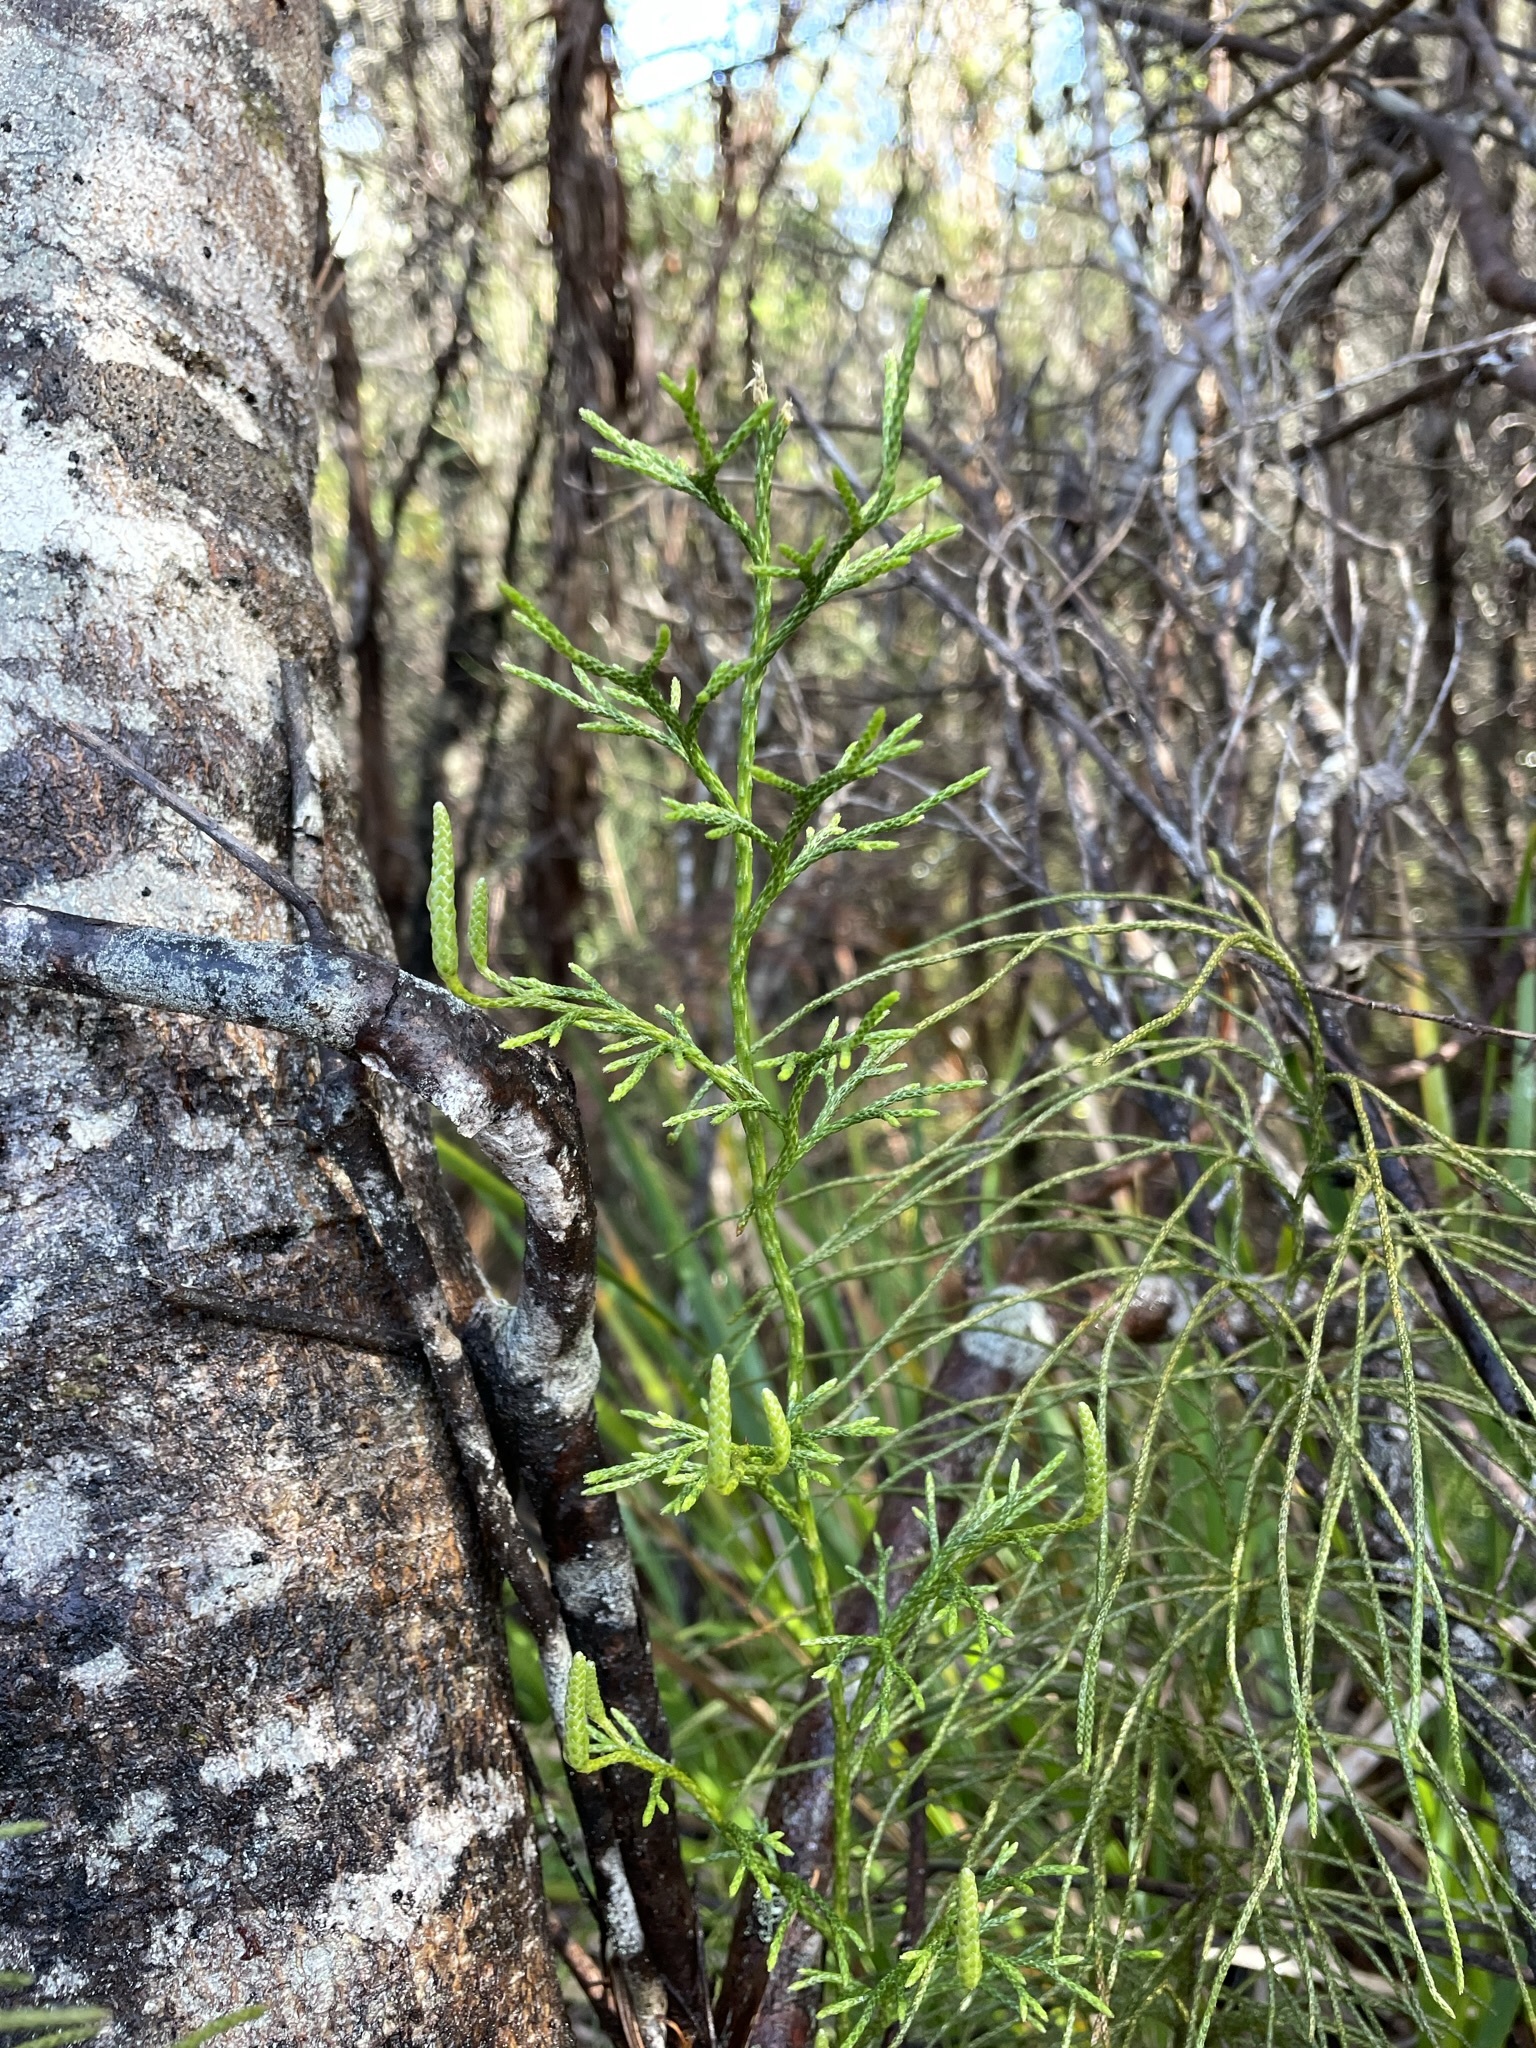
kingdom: Plantae
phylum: Tracheophyta
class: Lycopodiopsida
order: Lycopodiales
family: Lycopodiaceae
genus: Pseudolycopodium
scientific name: Pseudolycopodium densum
